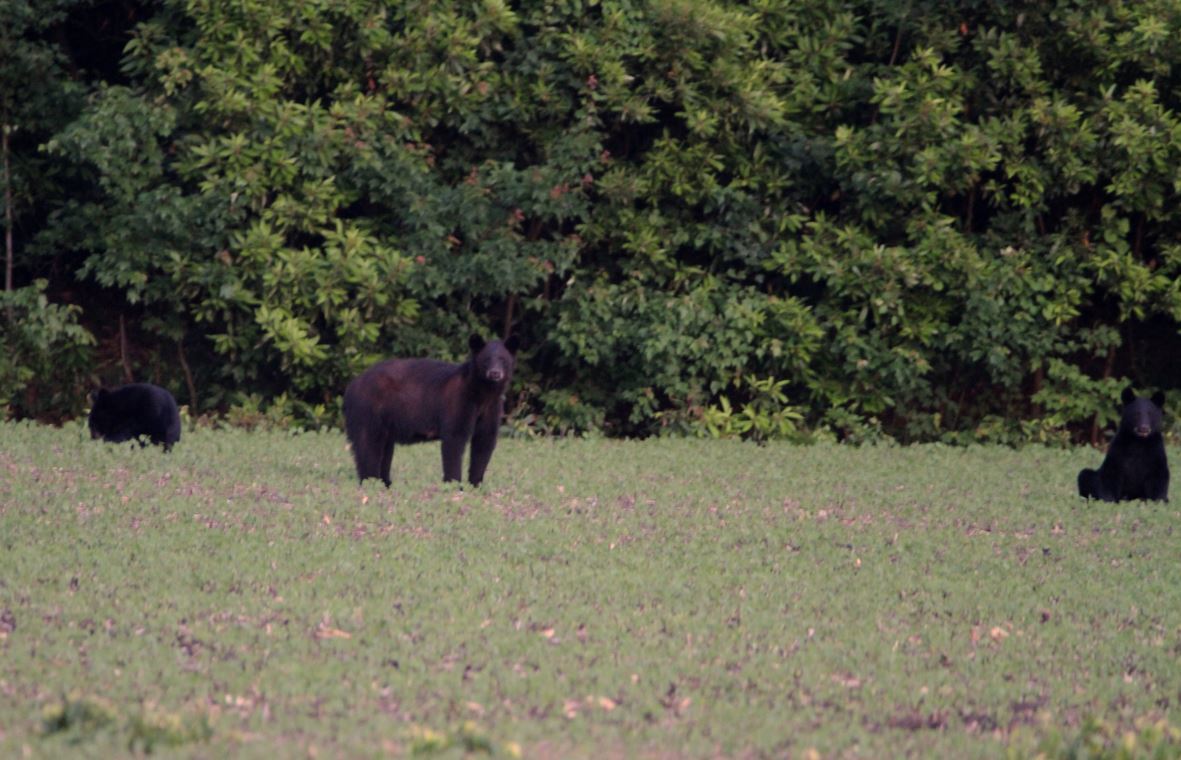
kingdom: Animalia
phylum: Chordata
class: Mammalia
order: Carnivora
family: Ursidae
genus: Ursus
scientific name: Ursus americanus
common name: American black bear
